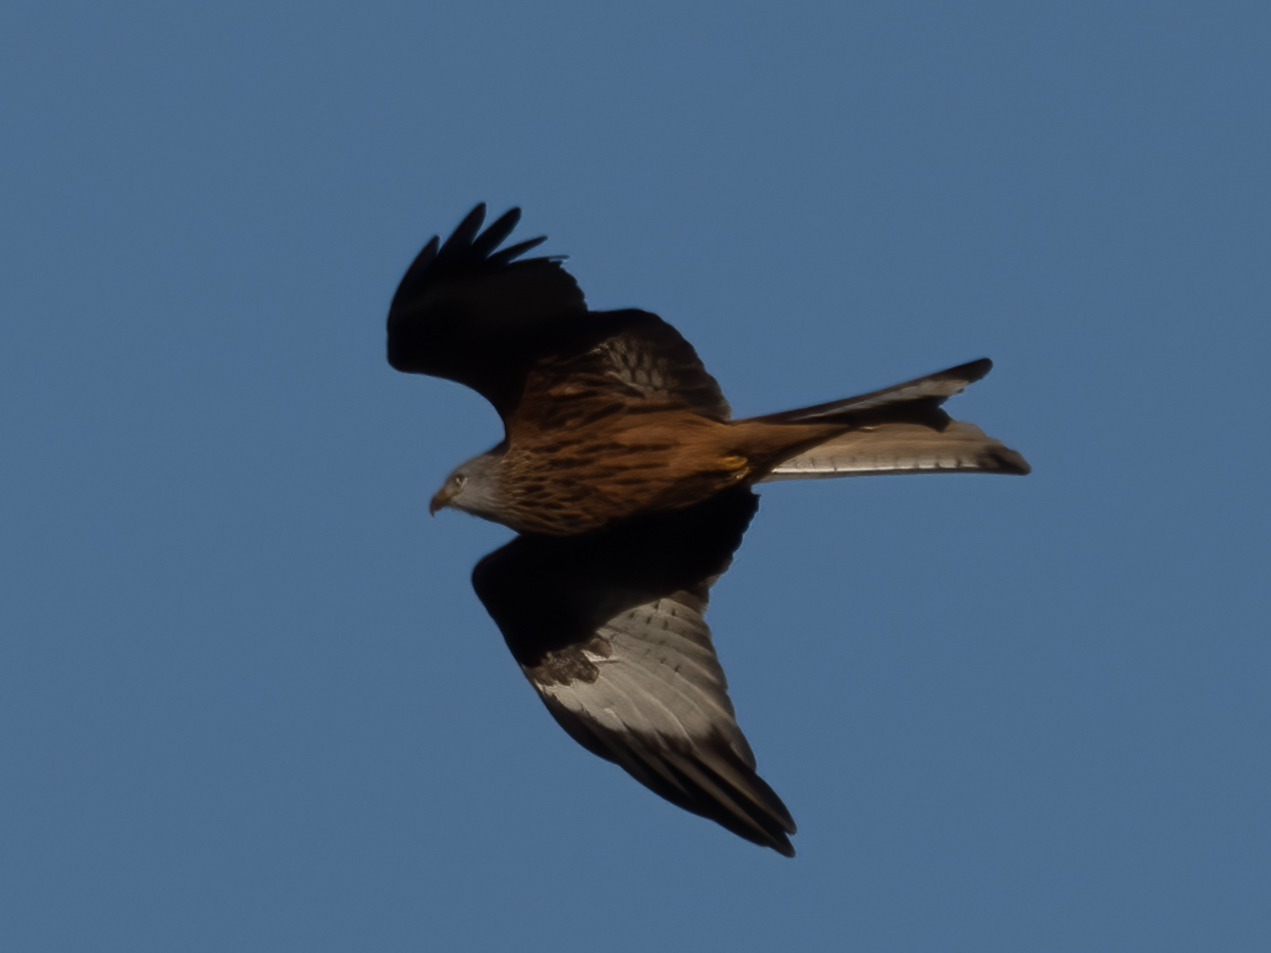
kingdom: Animalia
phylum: Chordata
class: Aves
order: Accipitriformes
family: Accipitridae
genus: Milvus
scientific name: Milvus milvus
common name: Red kite
